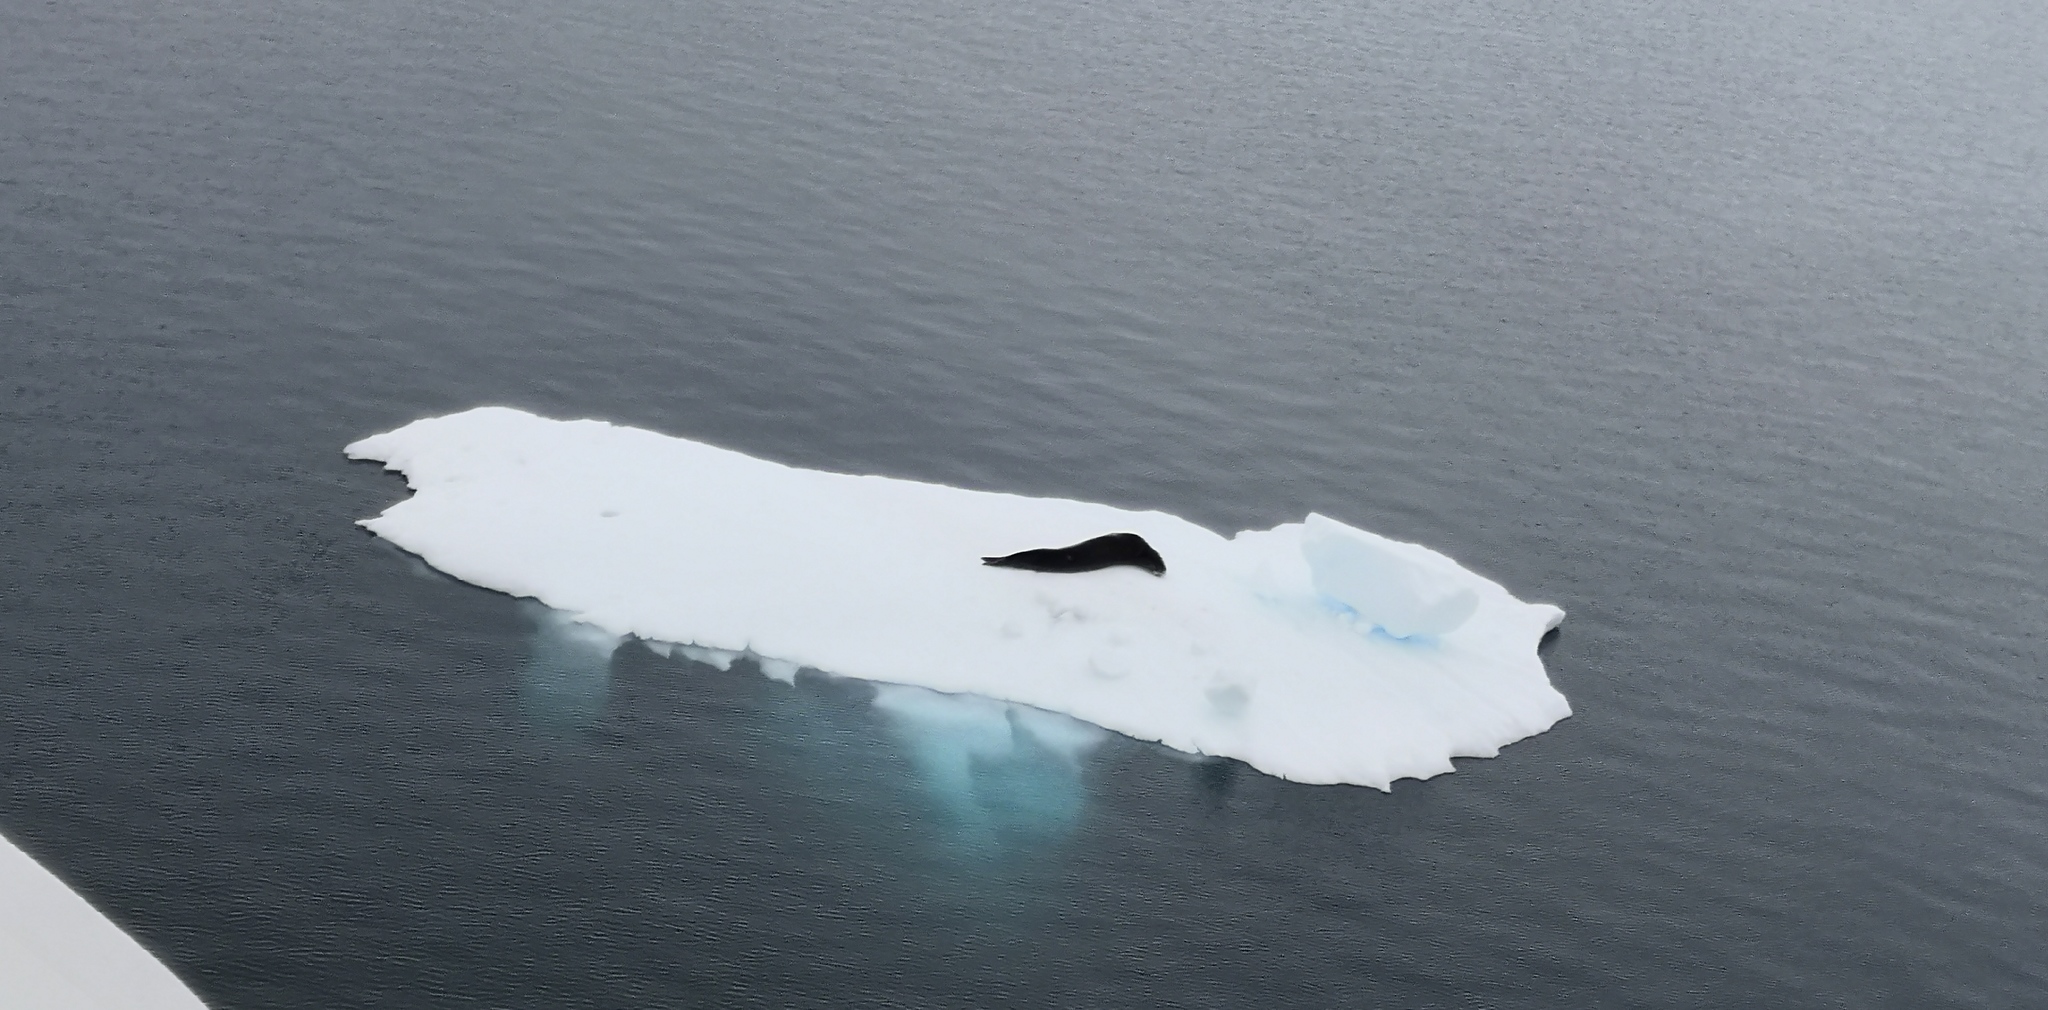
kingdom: Animalia
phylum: Chordata
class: Mammalia
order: Carnivora
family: Phocidae
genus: Hydrurga
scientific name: Hydrurga leptonyx
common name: Leopard seal
